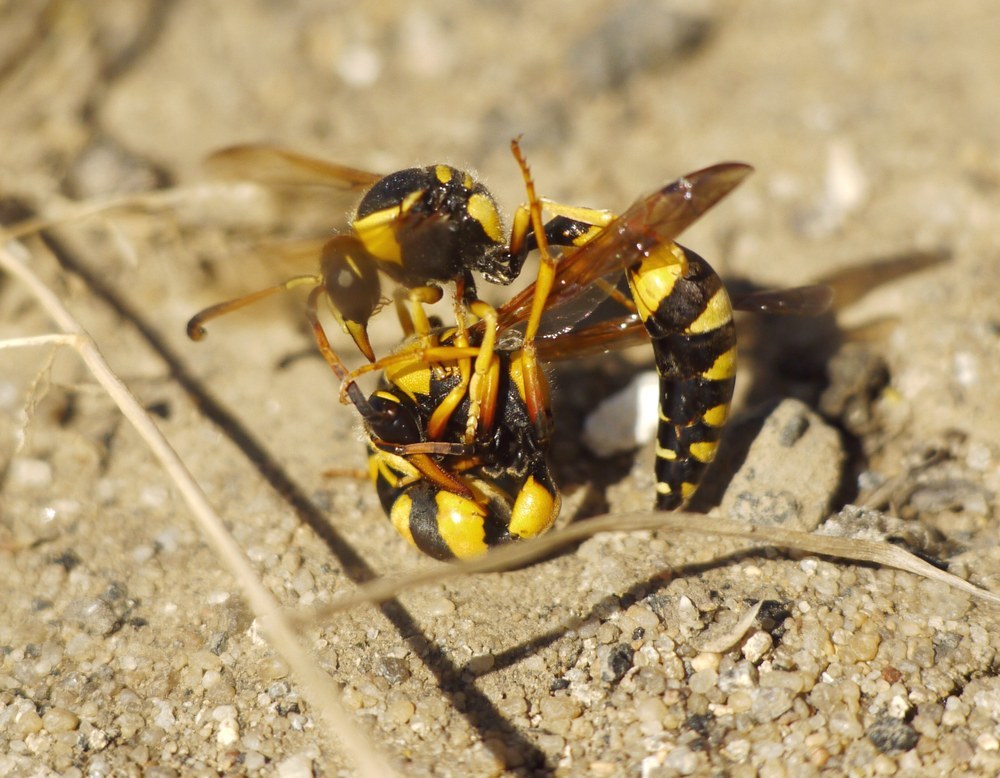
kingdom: Animalia
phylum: Arthropoda
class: Insecta
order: Hymenoptera
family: Eumenidae
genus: Katamenes
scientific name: Katamenes dimidiatus
